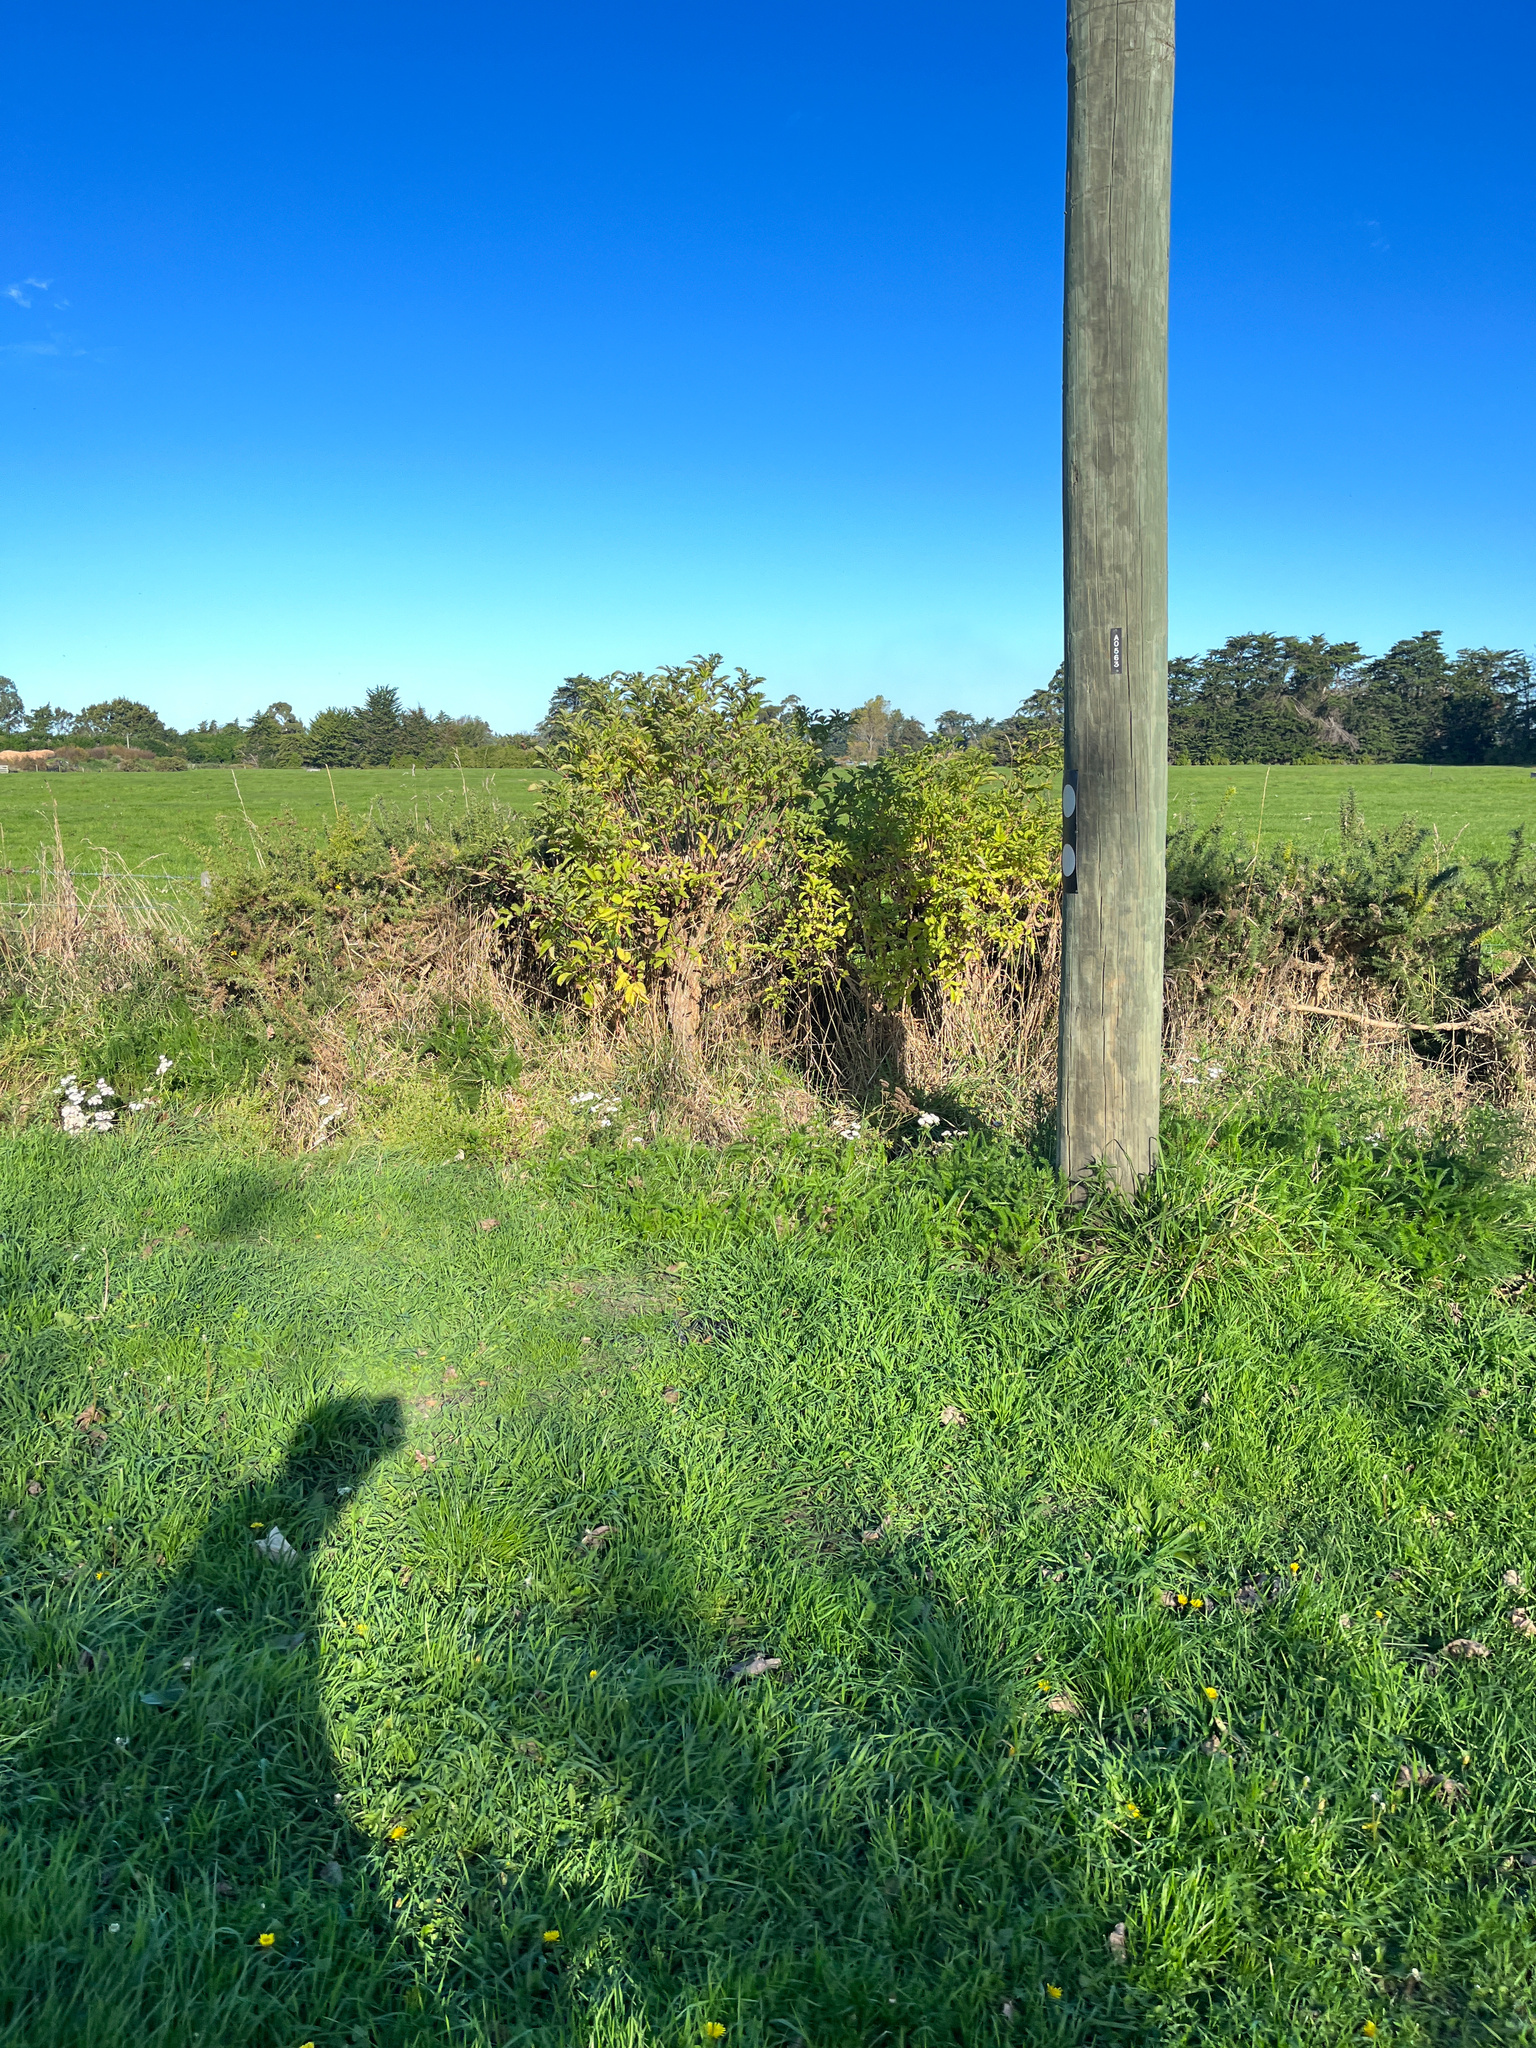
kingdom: Plantae
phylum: Tracheophyta
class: Magnoliopsida
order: Dipsacales
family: Viburnaceae
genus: Sambucus
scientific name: Sambucus nigra
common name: Elder
